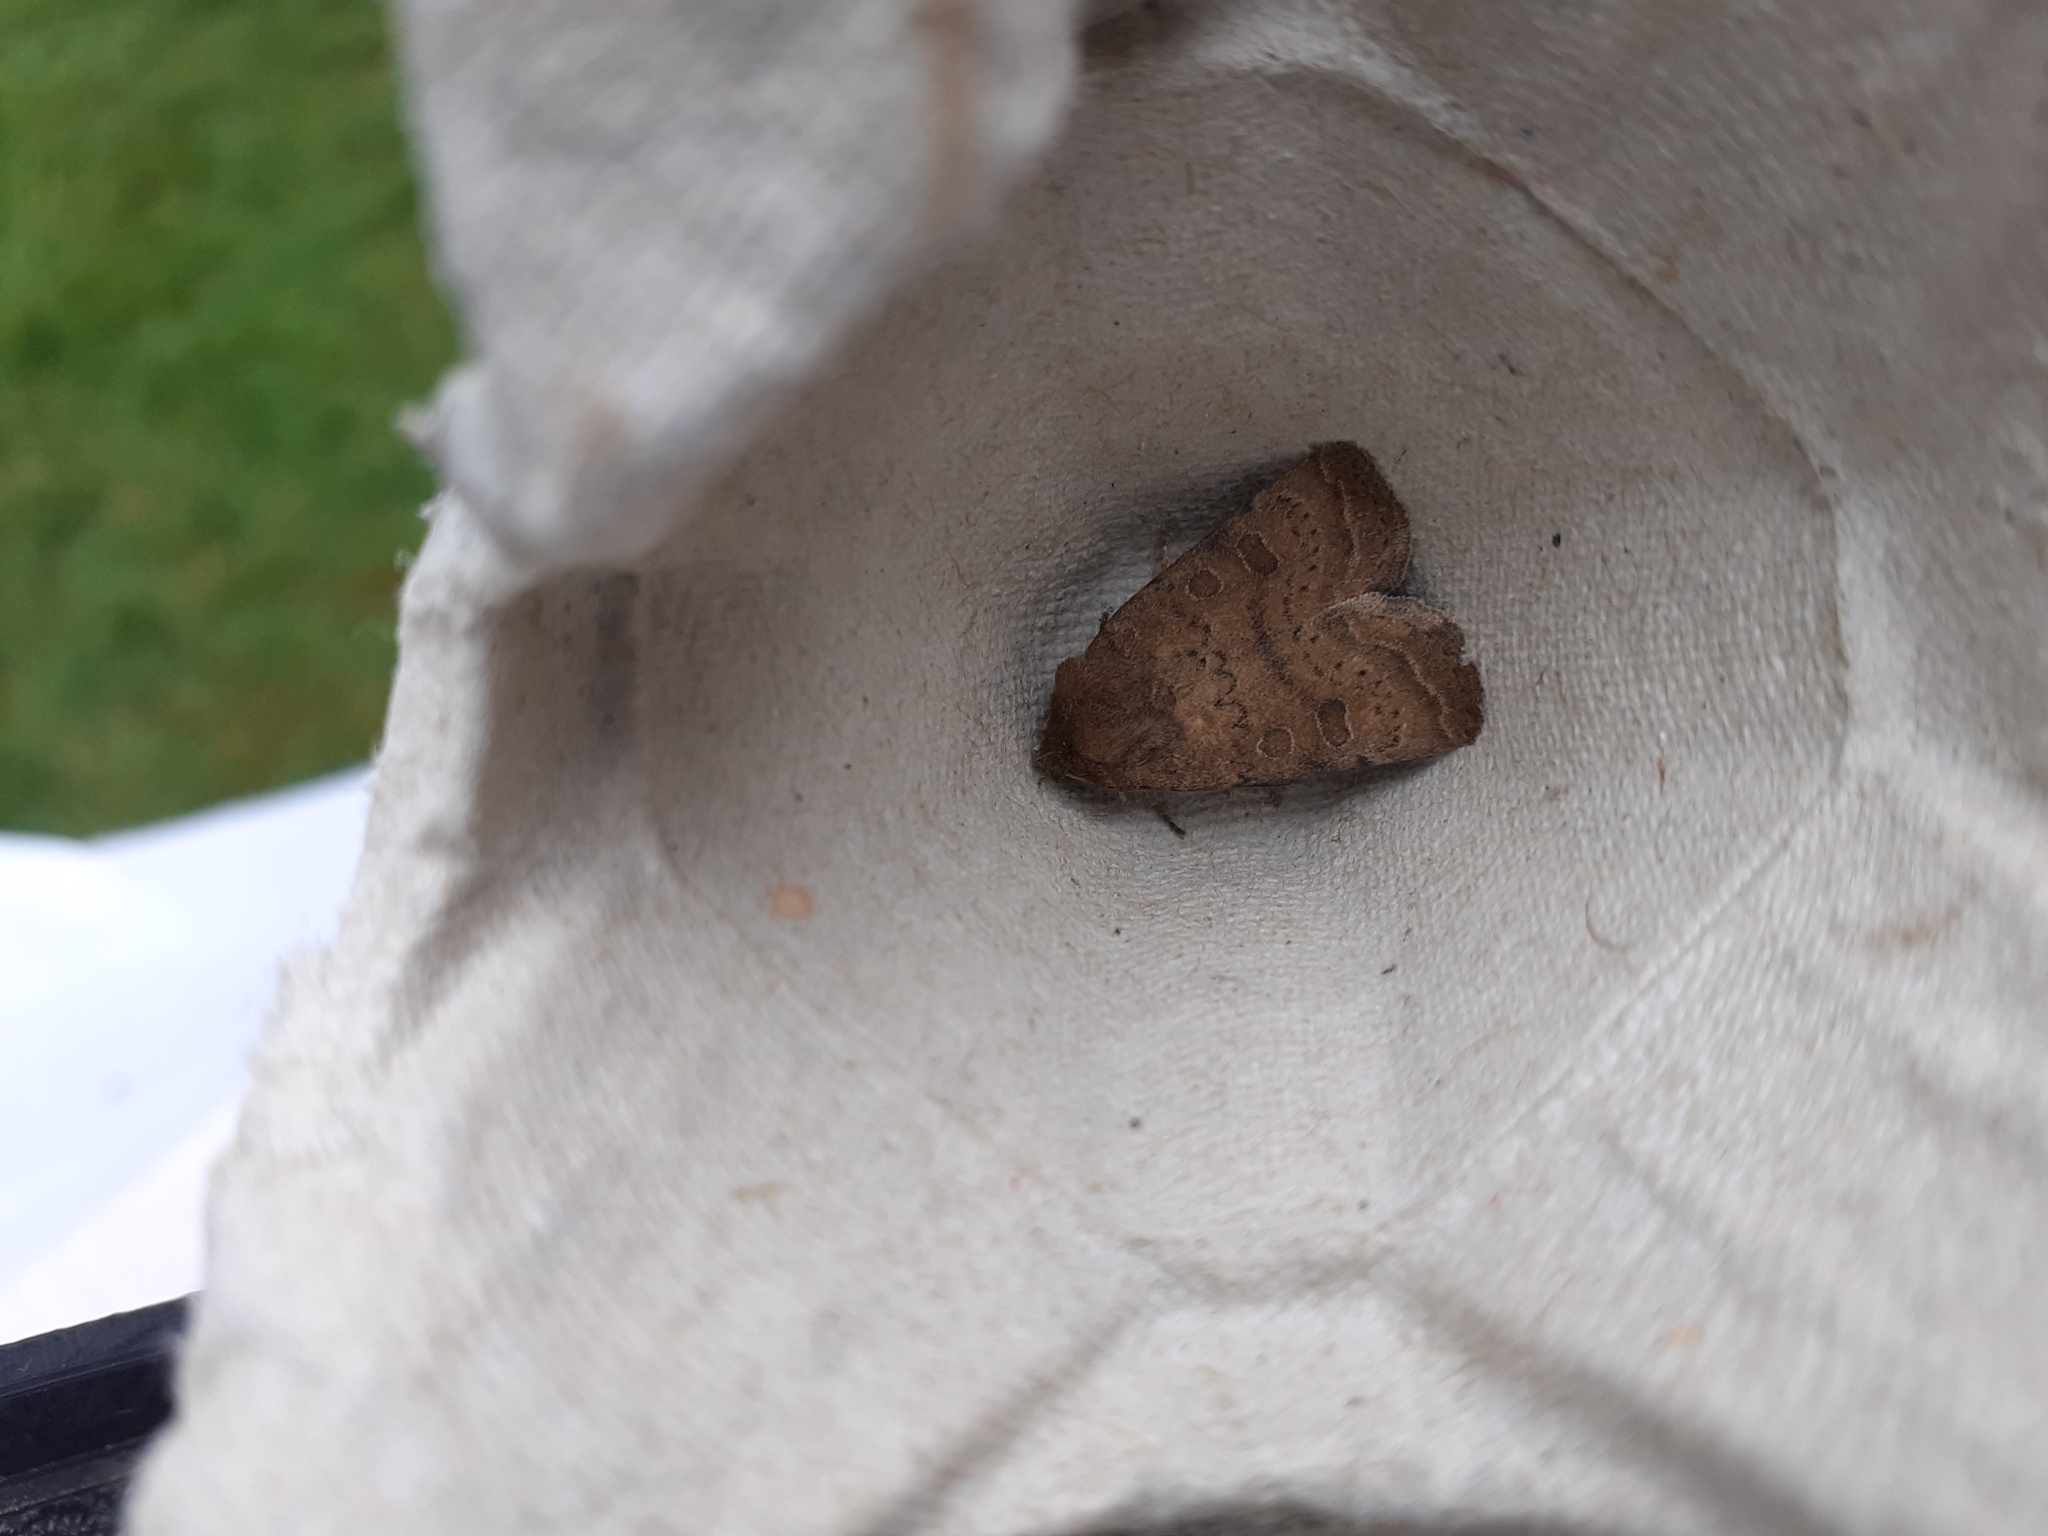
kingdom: Animalia
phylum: Arthropoda
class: Insecta
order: Lepidoptera
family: Noctuidae
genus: Hoplodrina
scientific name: Hoplodrina octogenaria
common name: Uncertain
